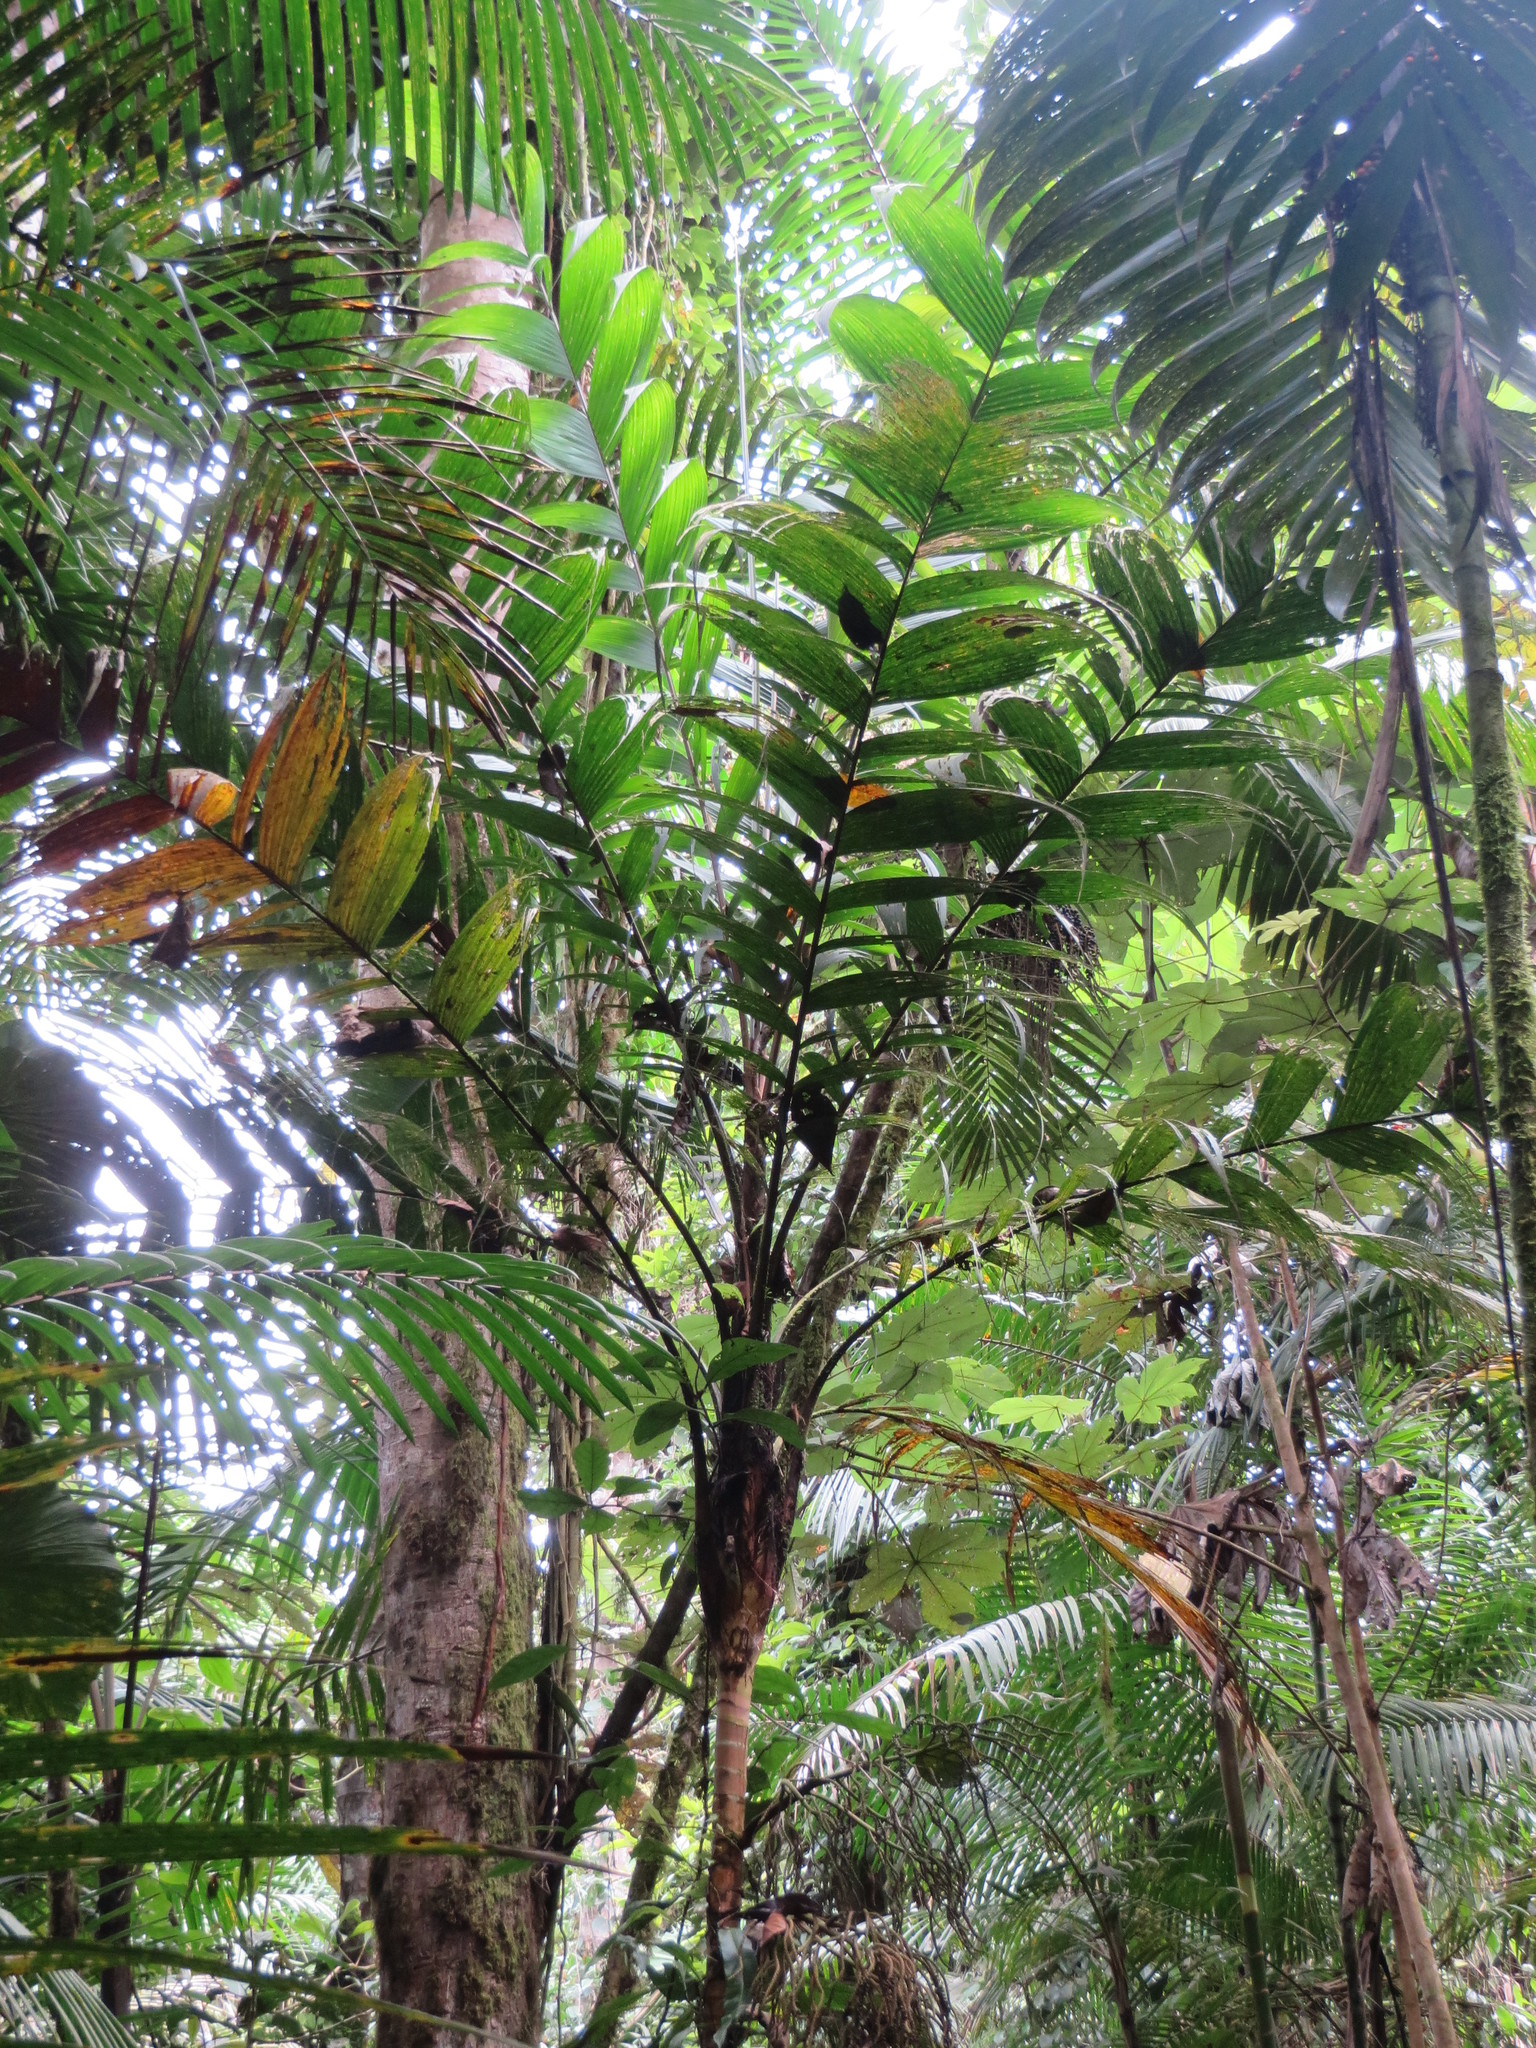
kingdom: Plantae
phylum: Tracheophyta
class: Liliopsida
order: Arecales
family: Arecaceae
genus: Geonoma
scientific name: Geonoma undata
